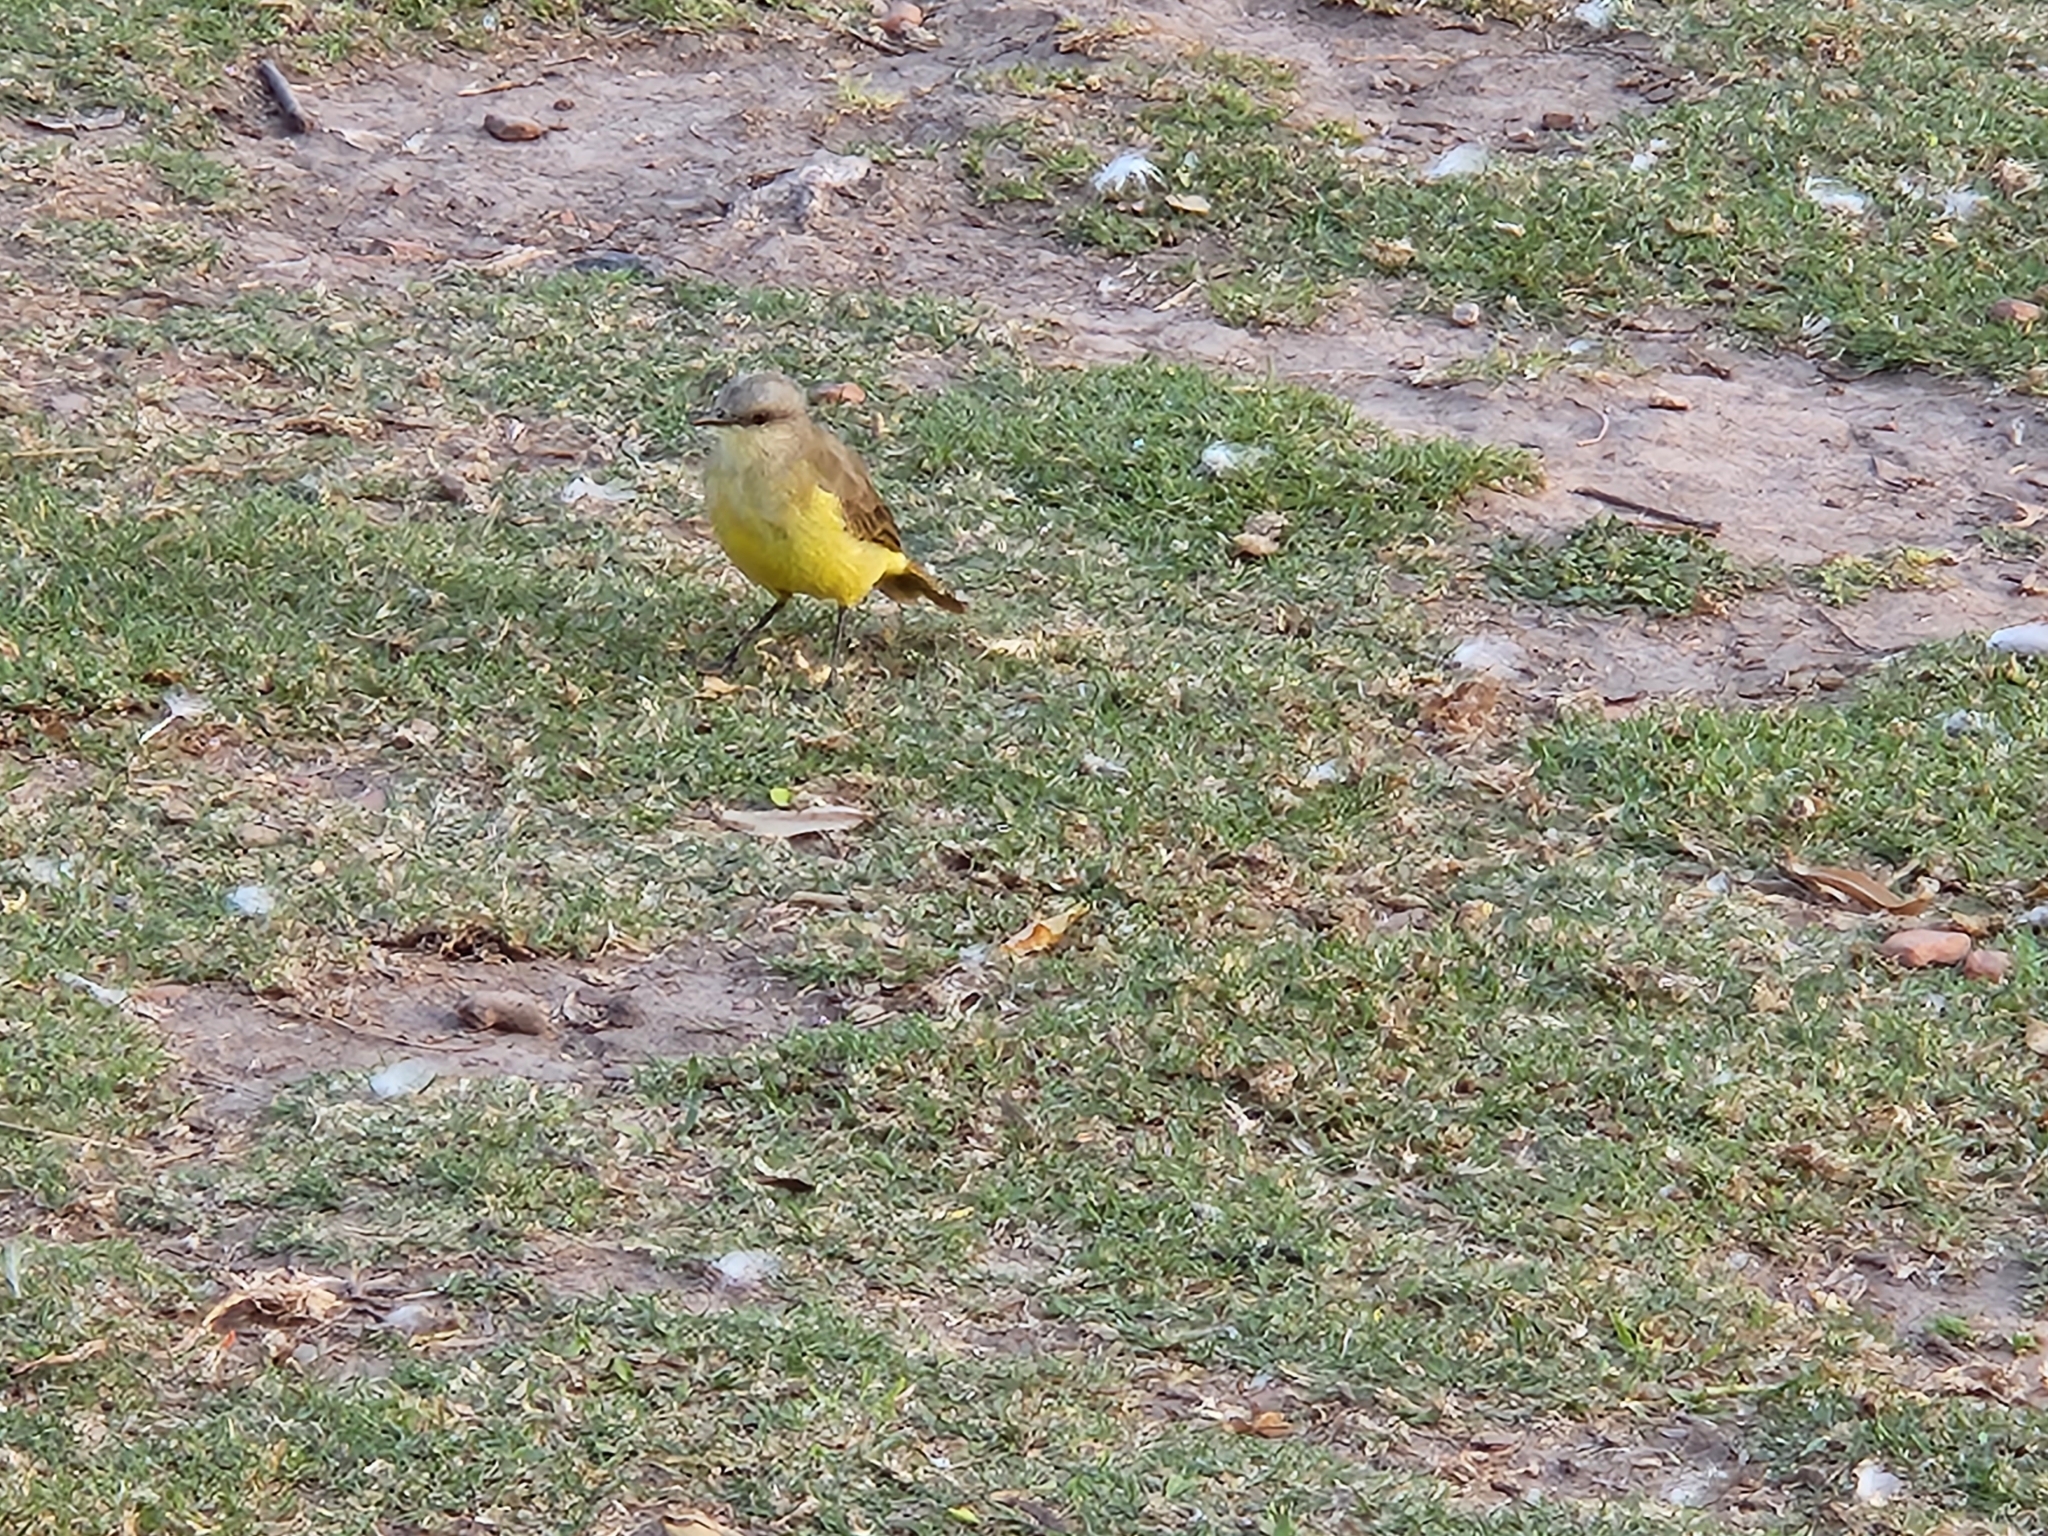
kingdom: Animalia
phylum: Chordata
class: Aves
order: Passeriformes
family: Tyrannidae
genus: Machetornis
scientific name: Machetornis rixosa
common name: Cattle tyrant
